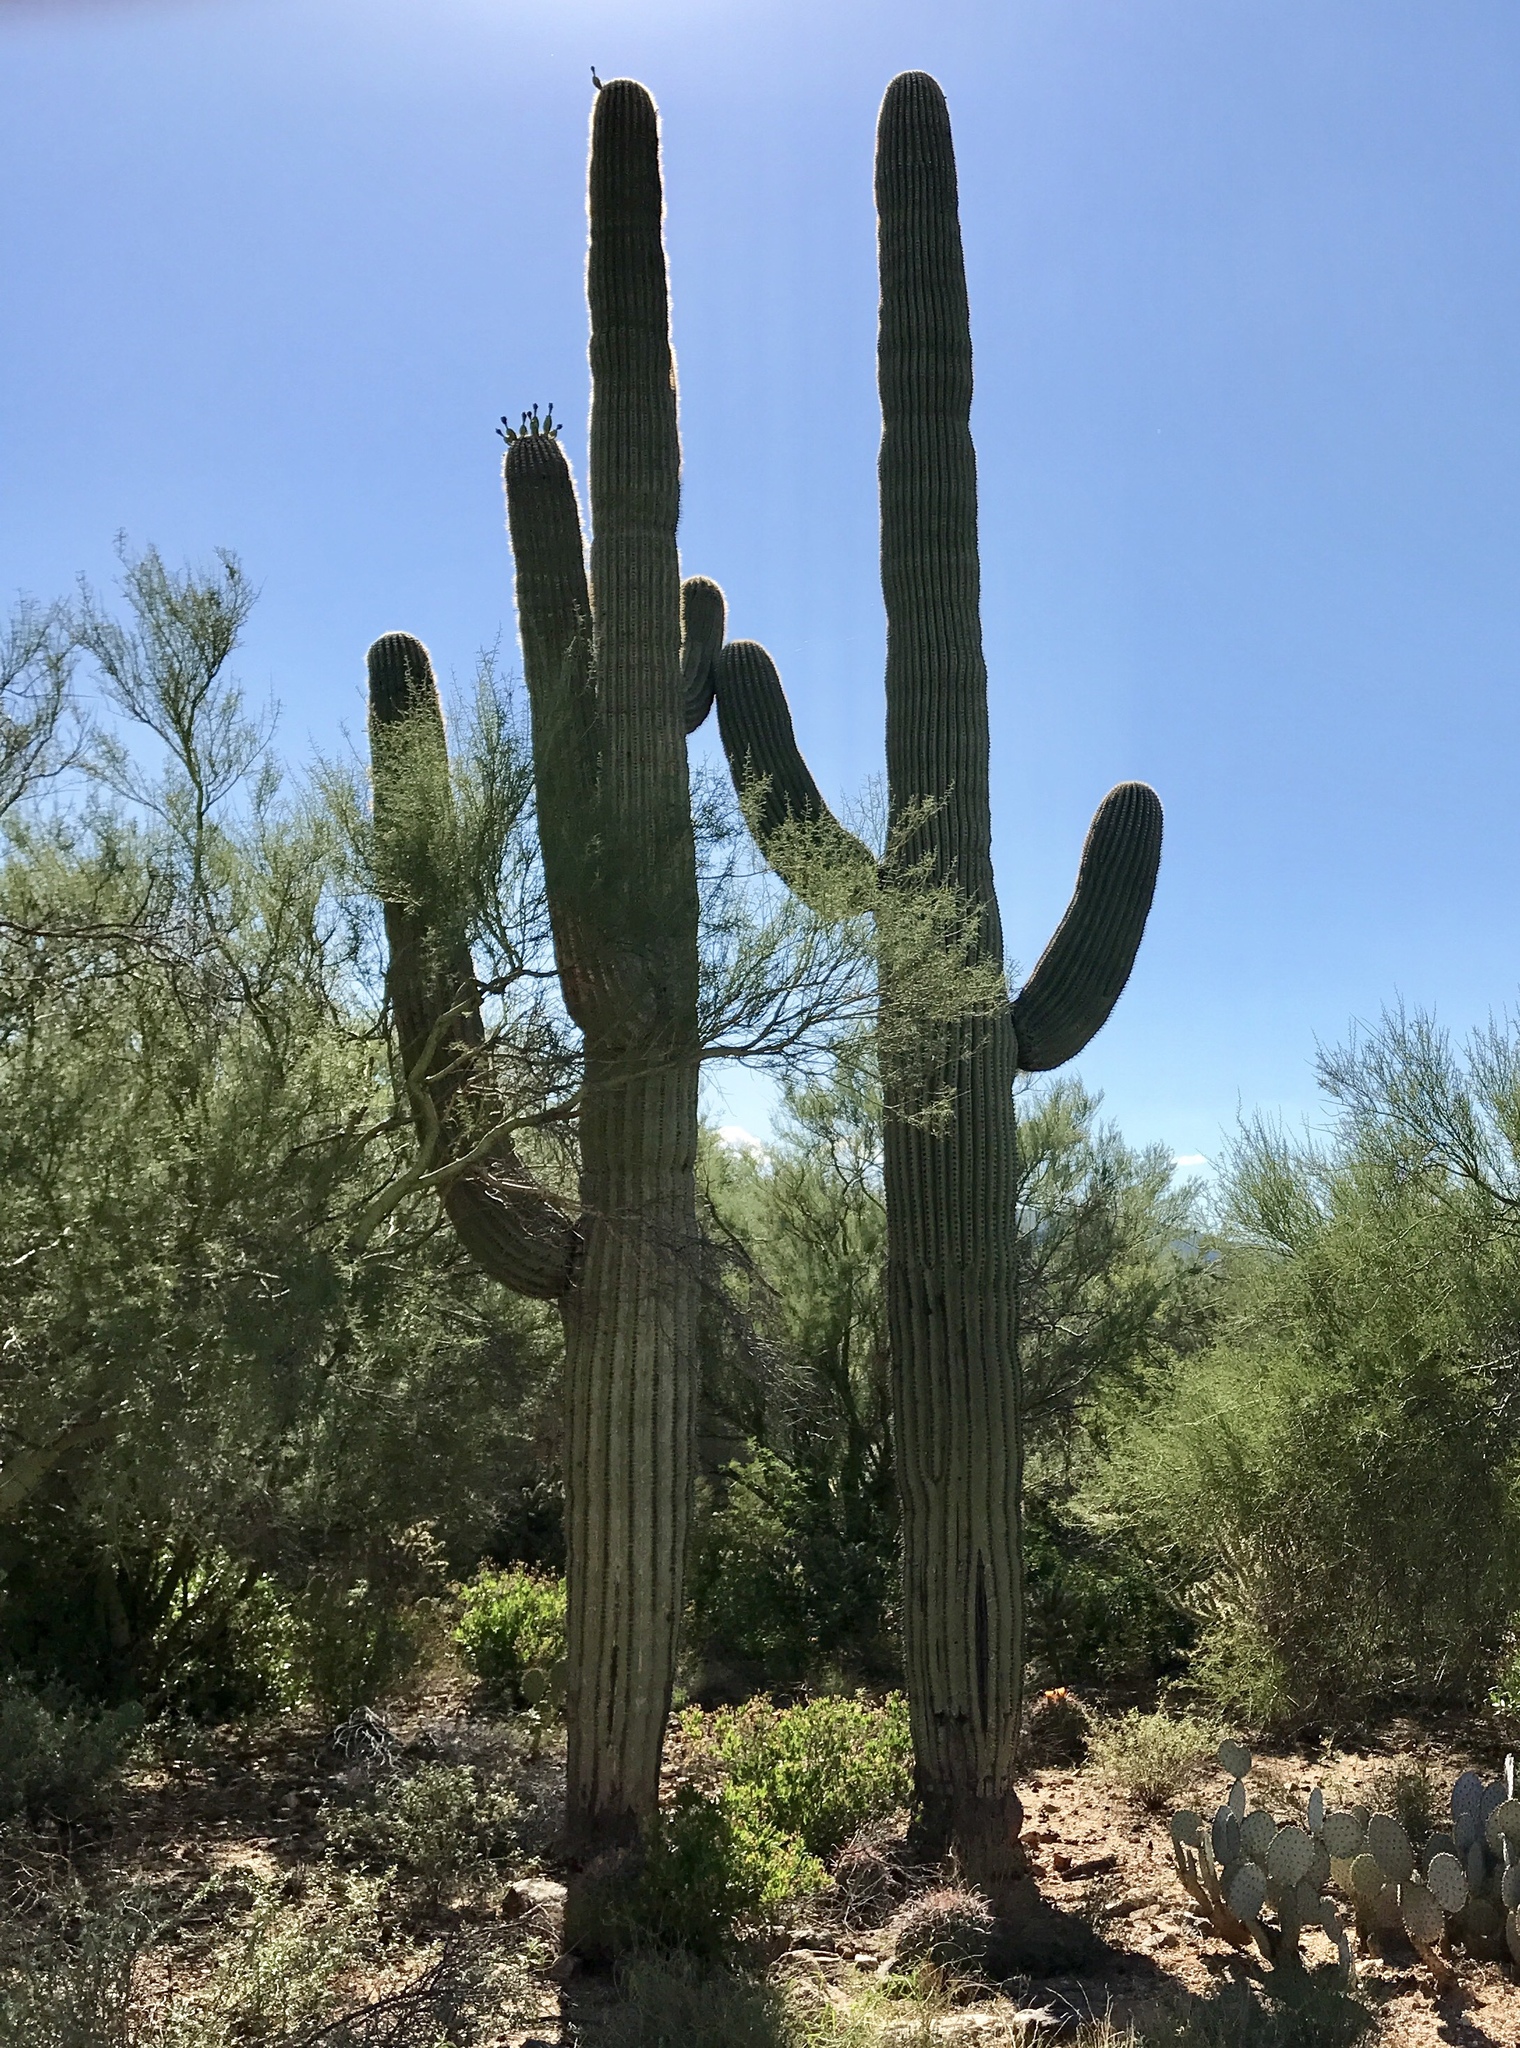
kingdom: Plantae
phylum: Tracheophyta
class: Magnoliopsida
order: Caryophyllales
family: Cactaceae
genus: Carnegiea
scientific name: Carnegiea gigantea
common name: Saguaro
